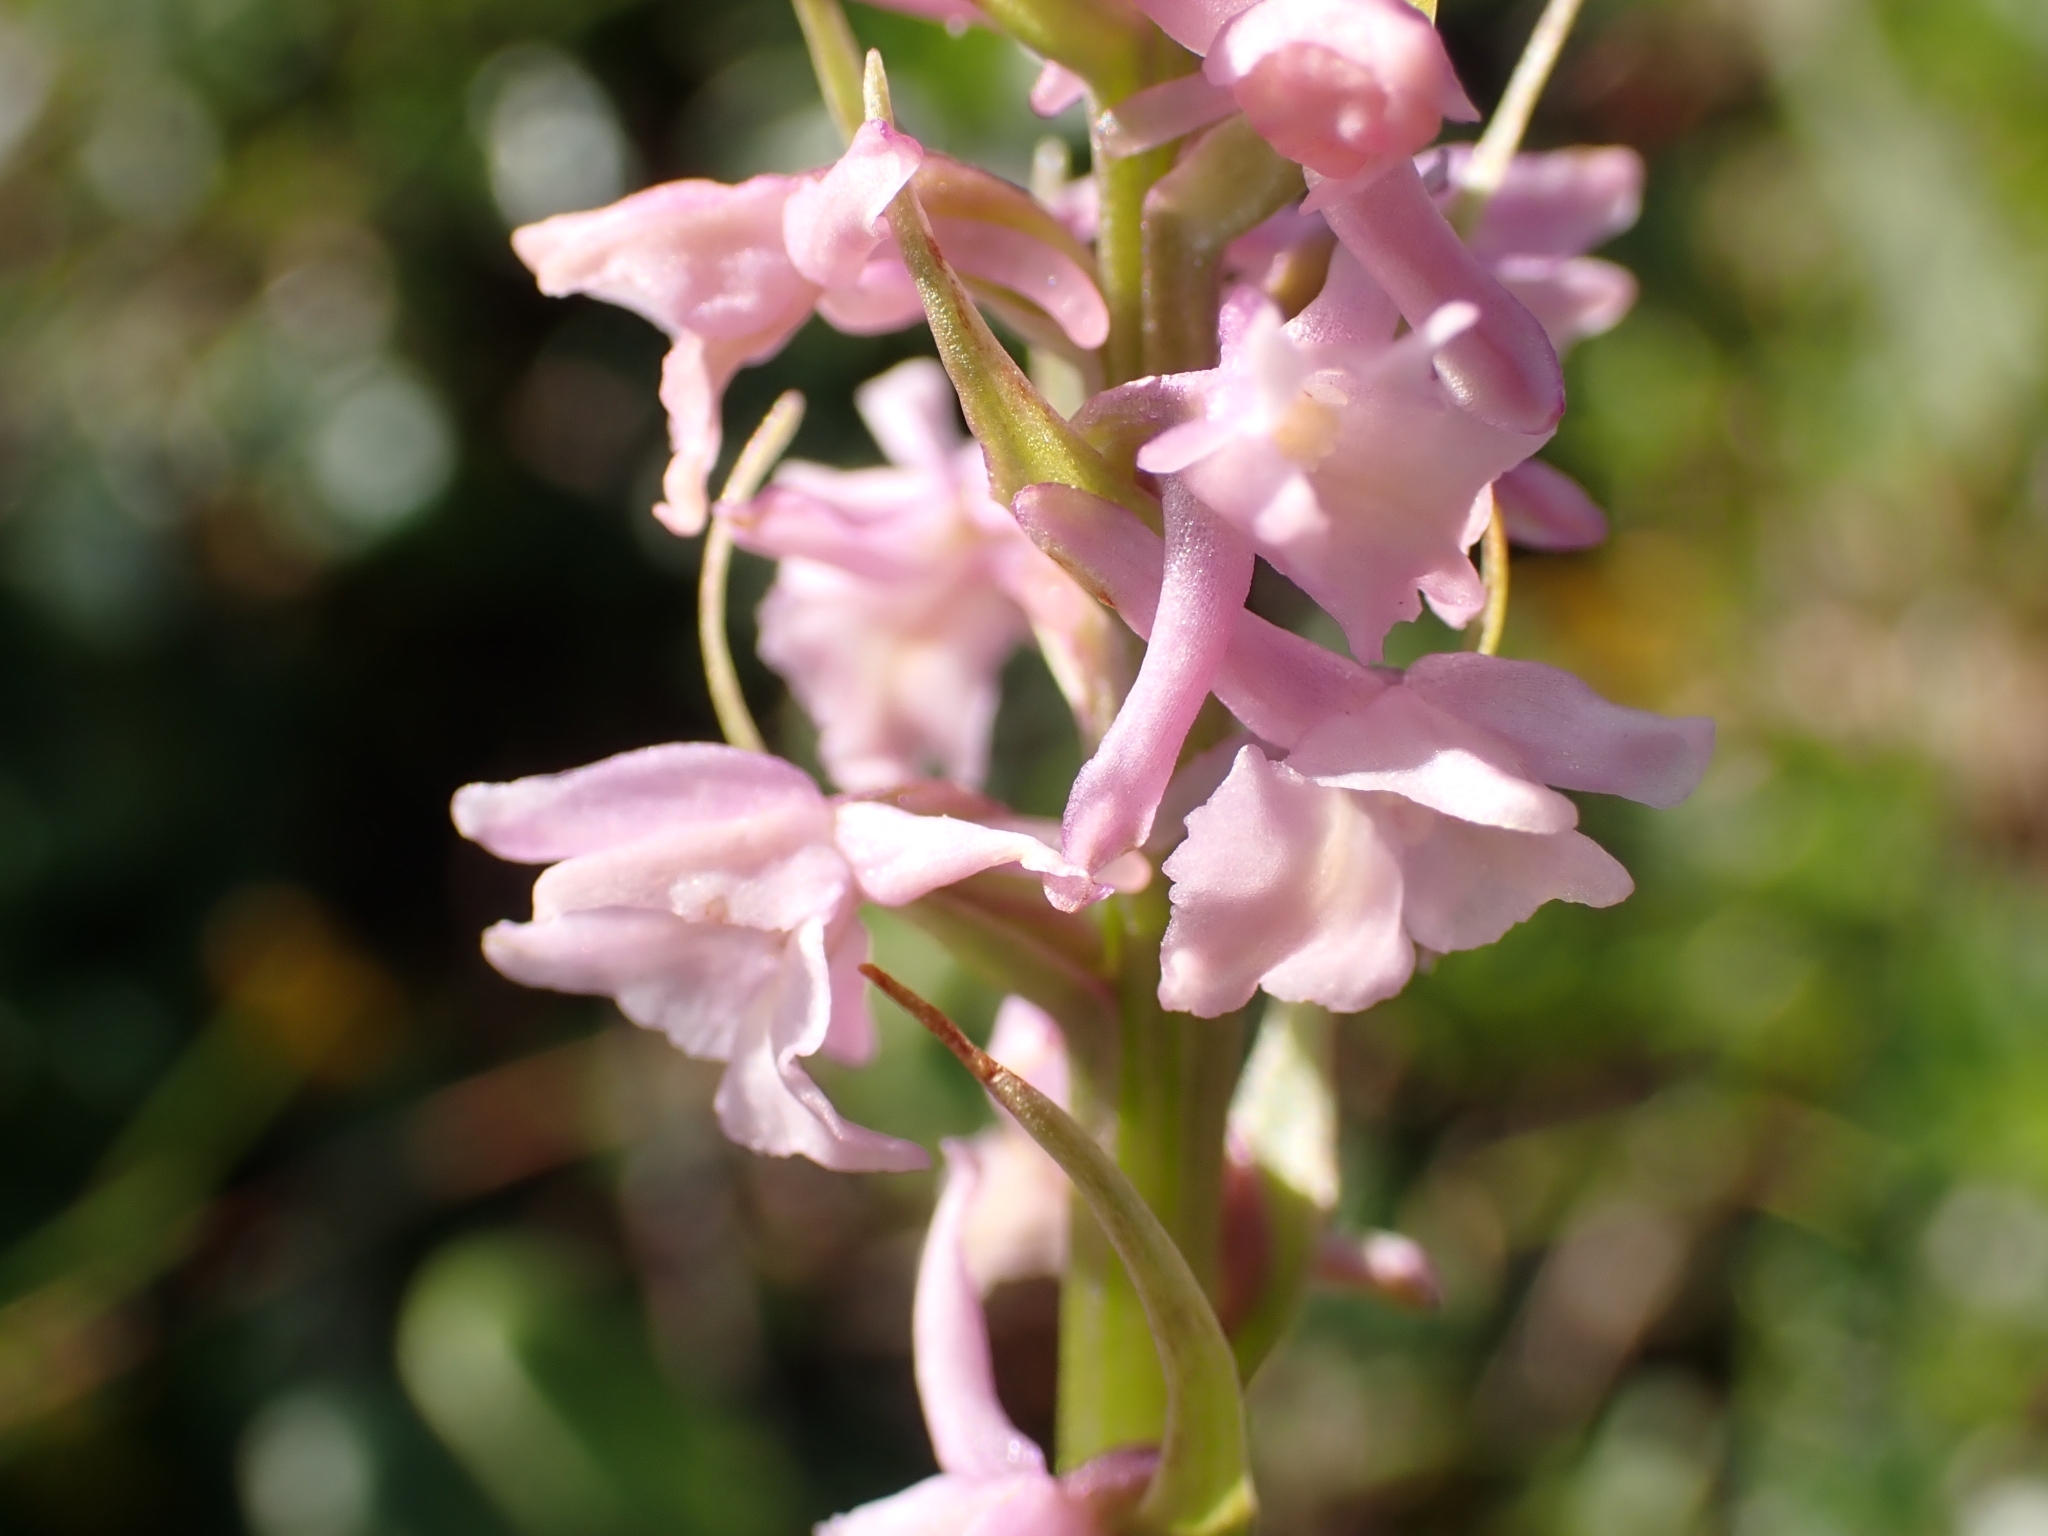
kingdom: Plantae
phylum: Tracheophyta
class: Liliopsida
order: Asparagales
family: Orchidaceae
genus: Gymnadenia
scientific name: Gymnadenia odoratissima
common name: Scented gymnadenia
